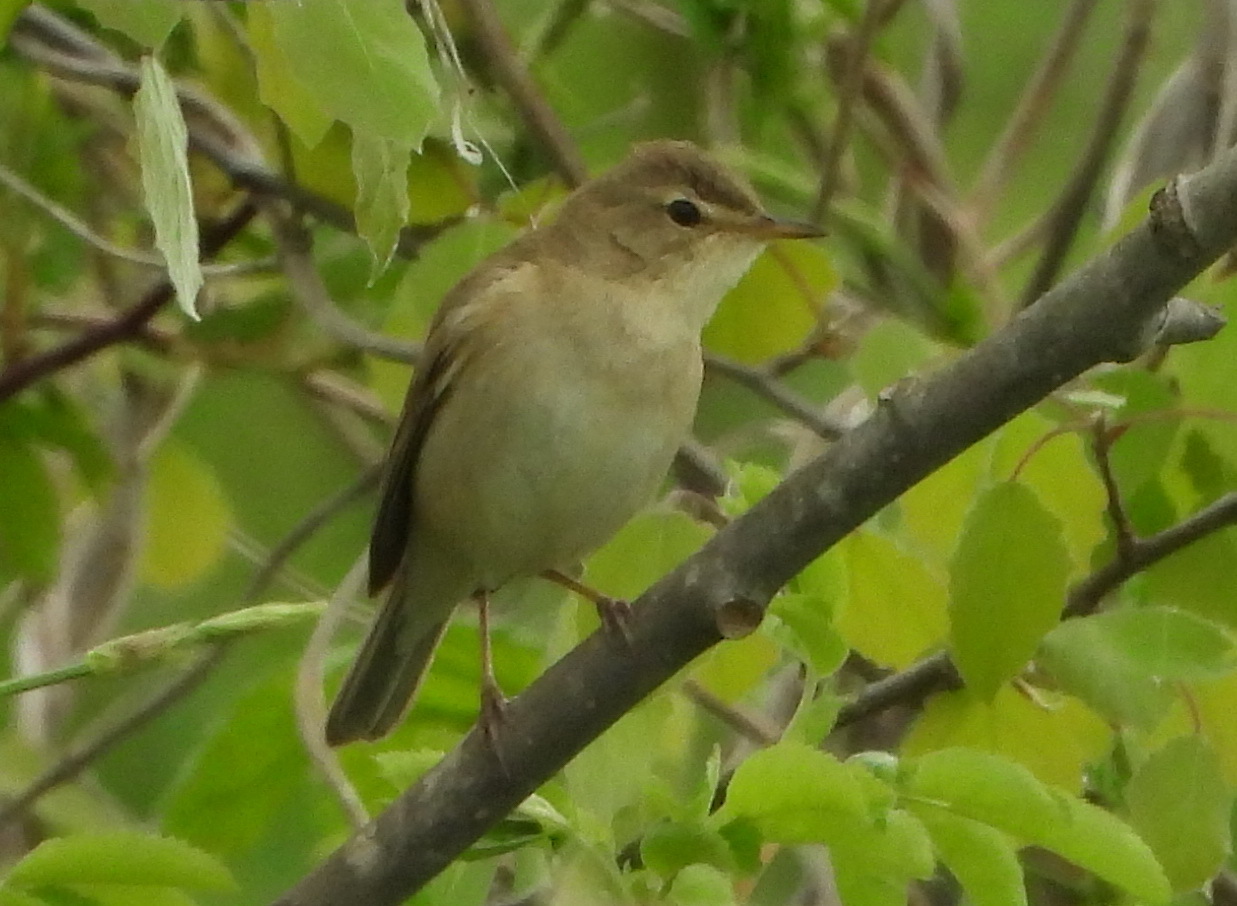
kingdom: Animalia
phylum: Chordata
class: Aves
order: Passeriformes
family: Acrocephalidae
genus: Iduna
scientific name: Iduna caligata
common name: Booted warbler
